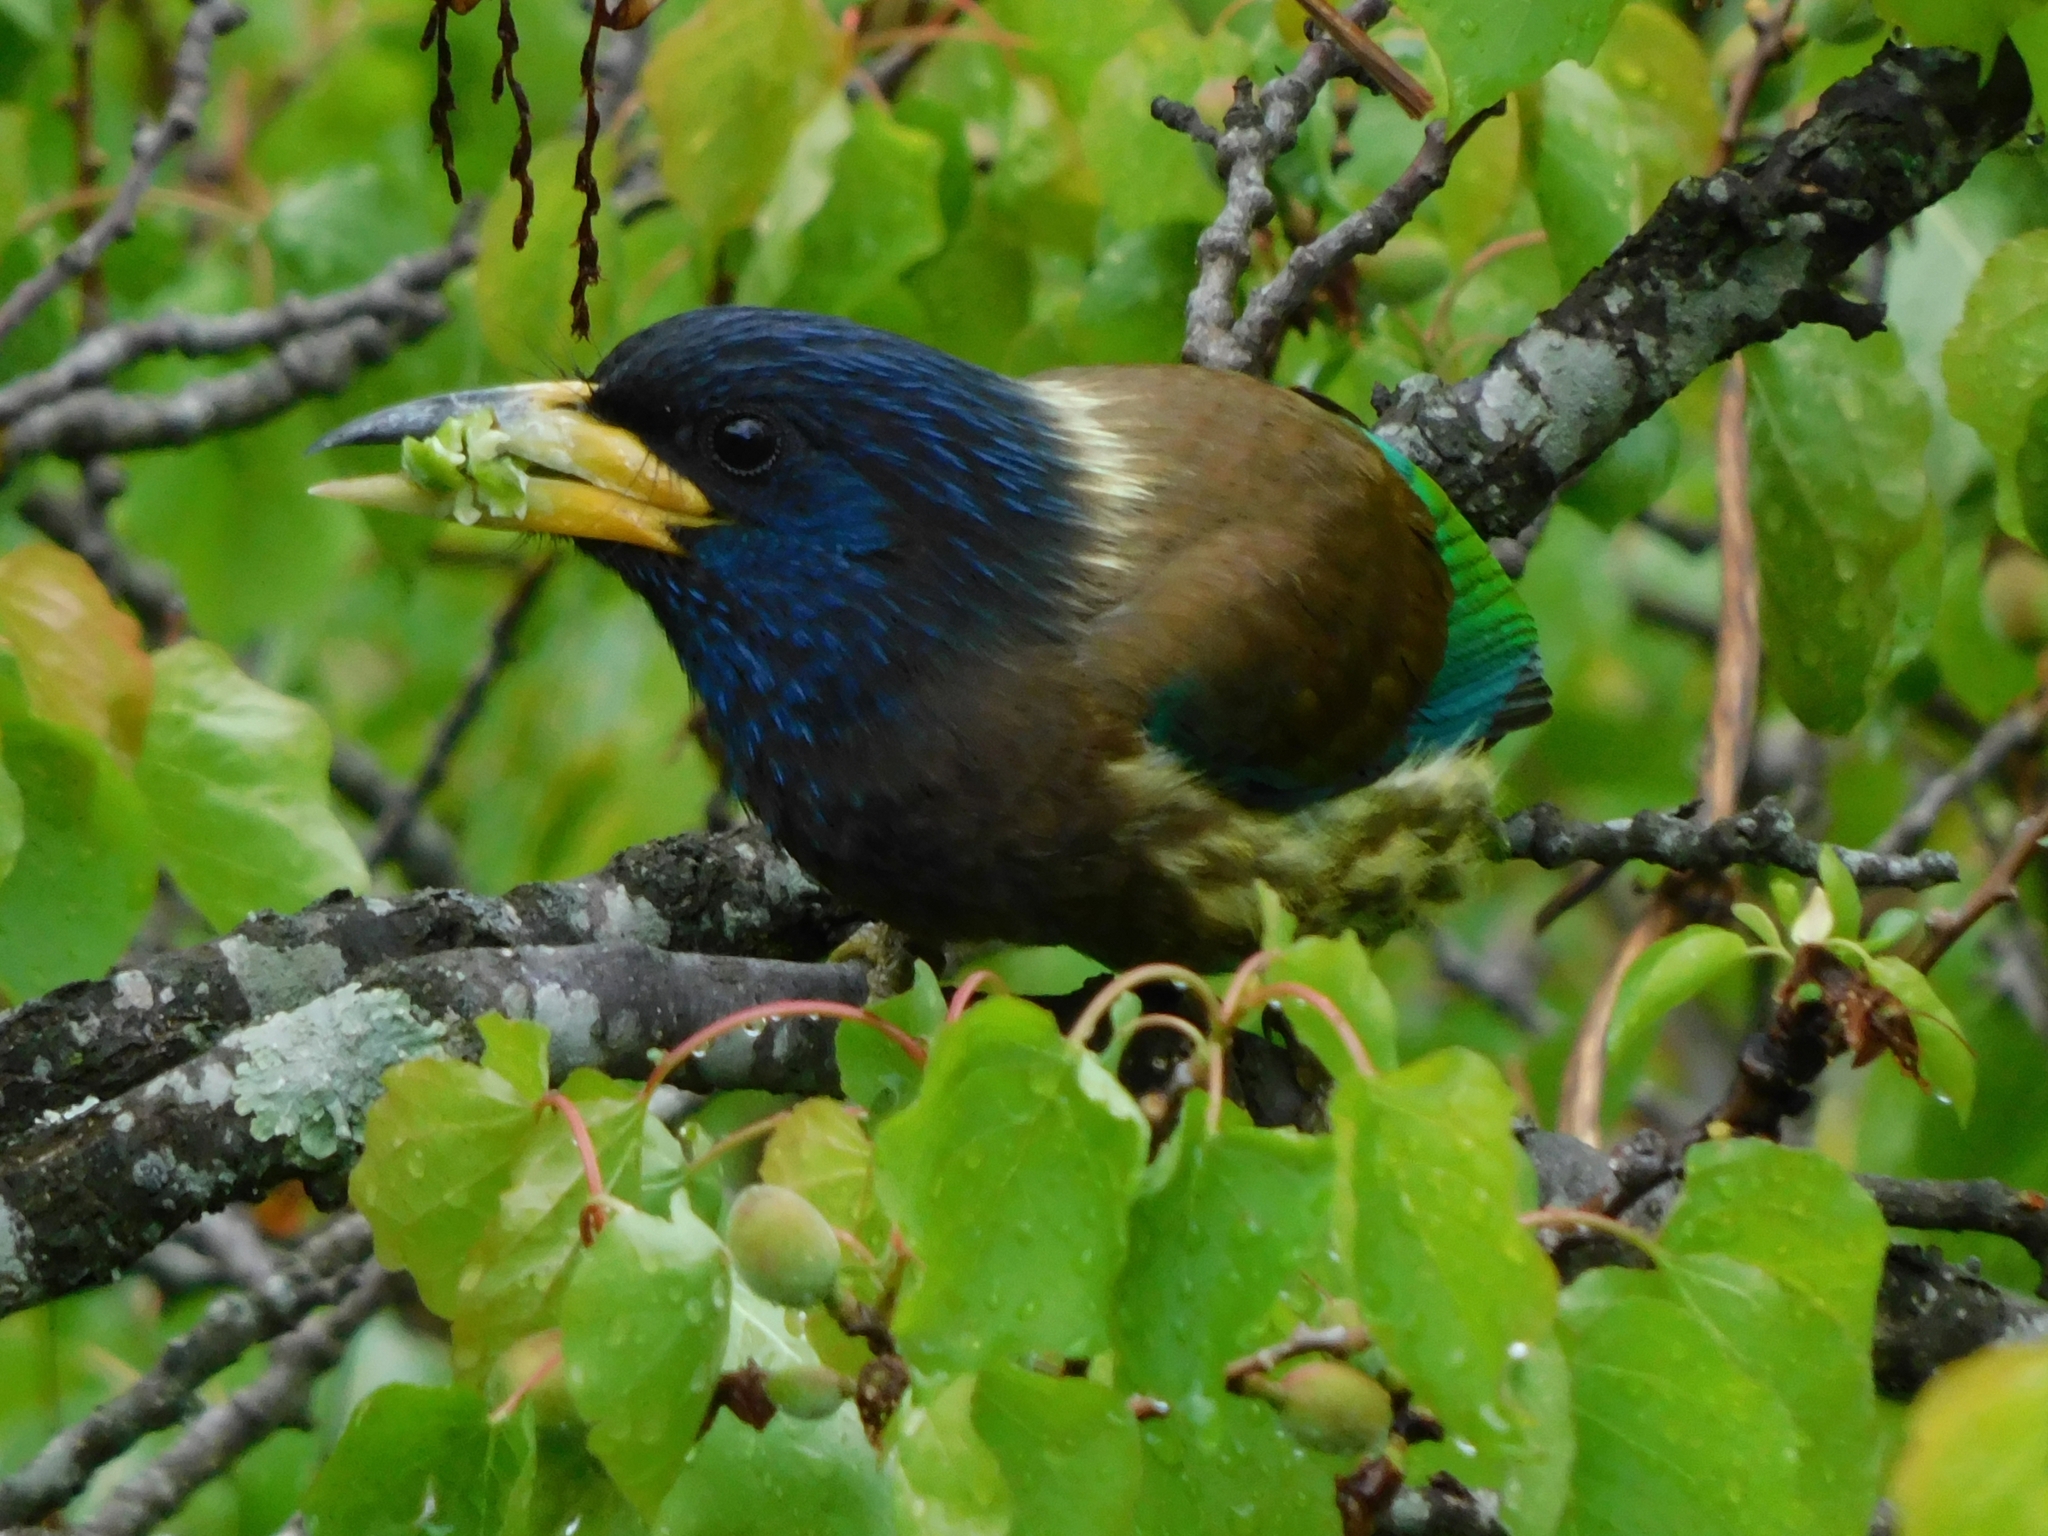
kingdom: Animalia
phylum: Chordata
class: Aves
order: Piciformes
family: Megalaimidae
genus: Psilopogon
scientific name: Psilopogon virens
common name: Great barbet
